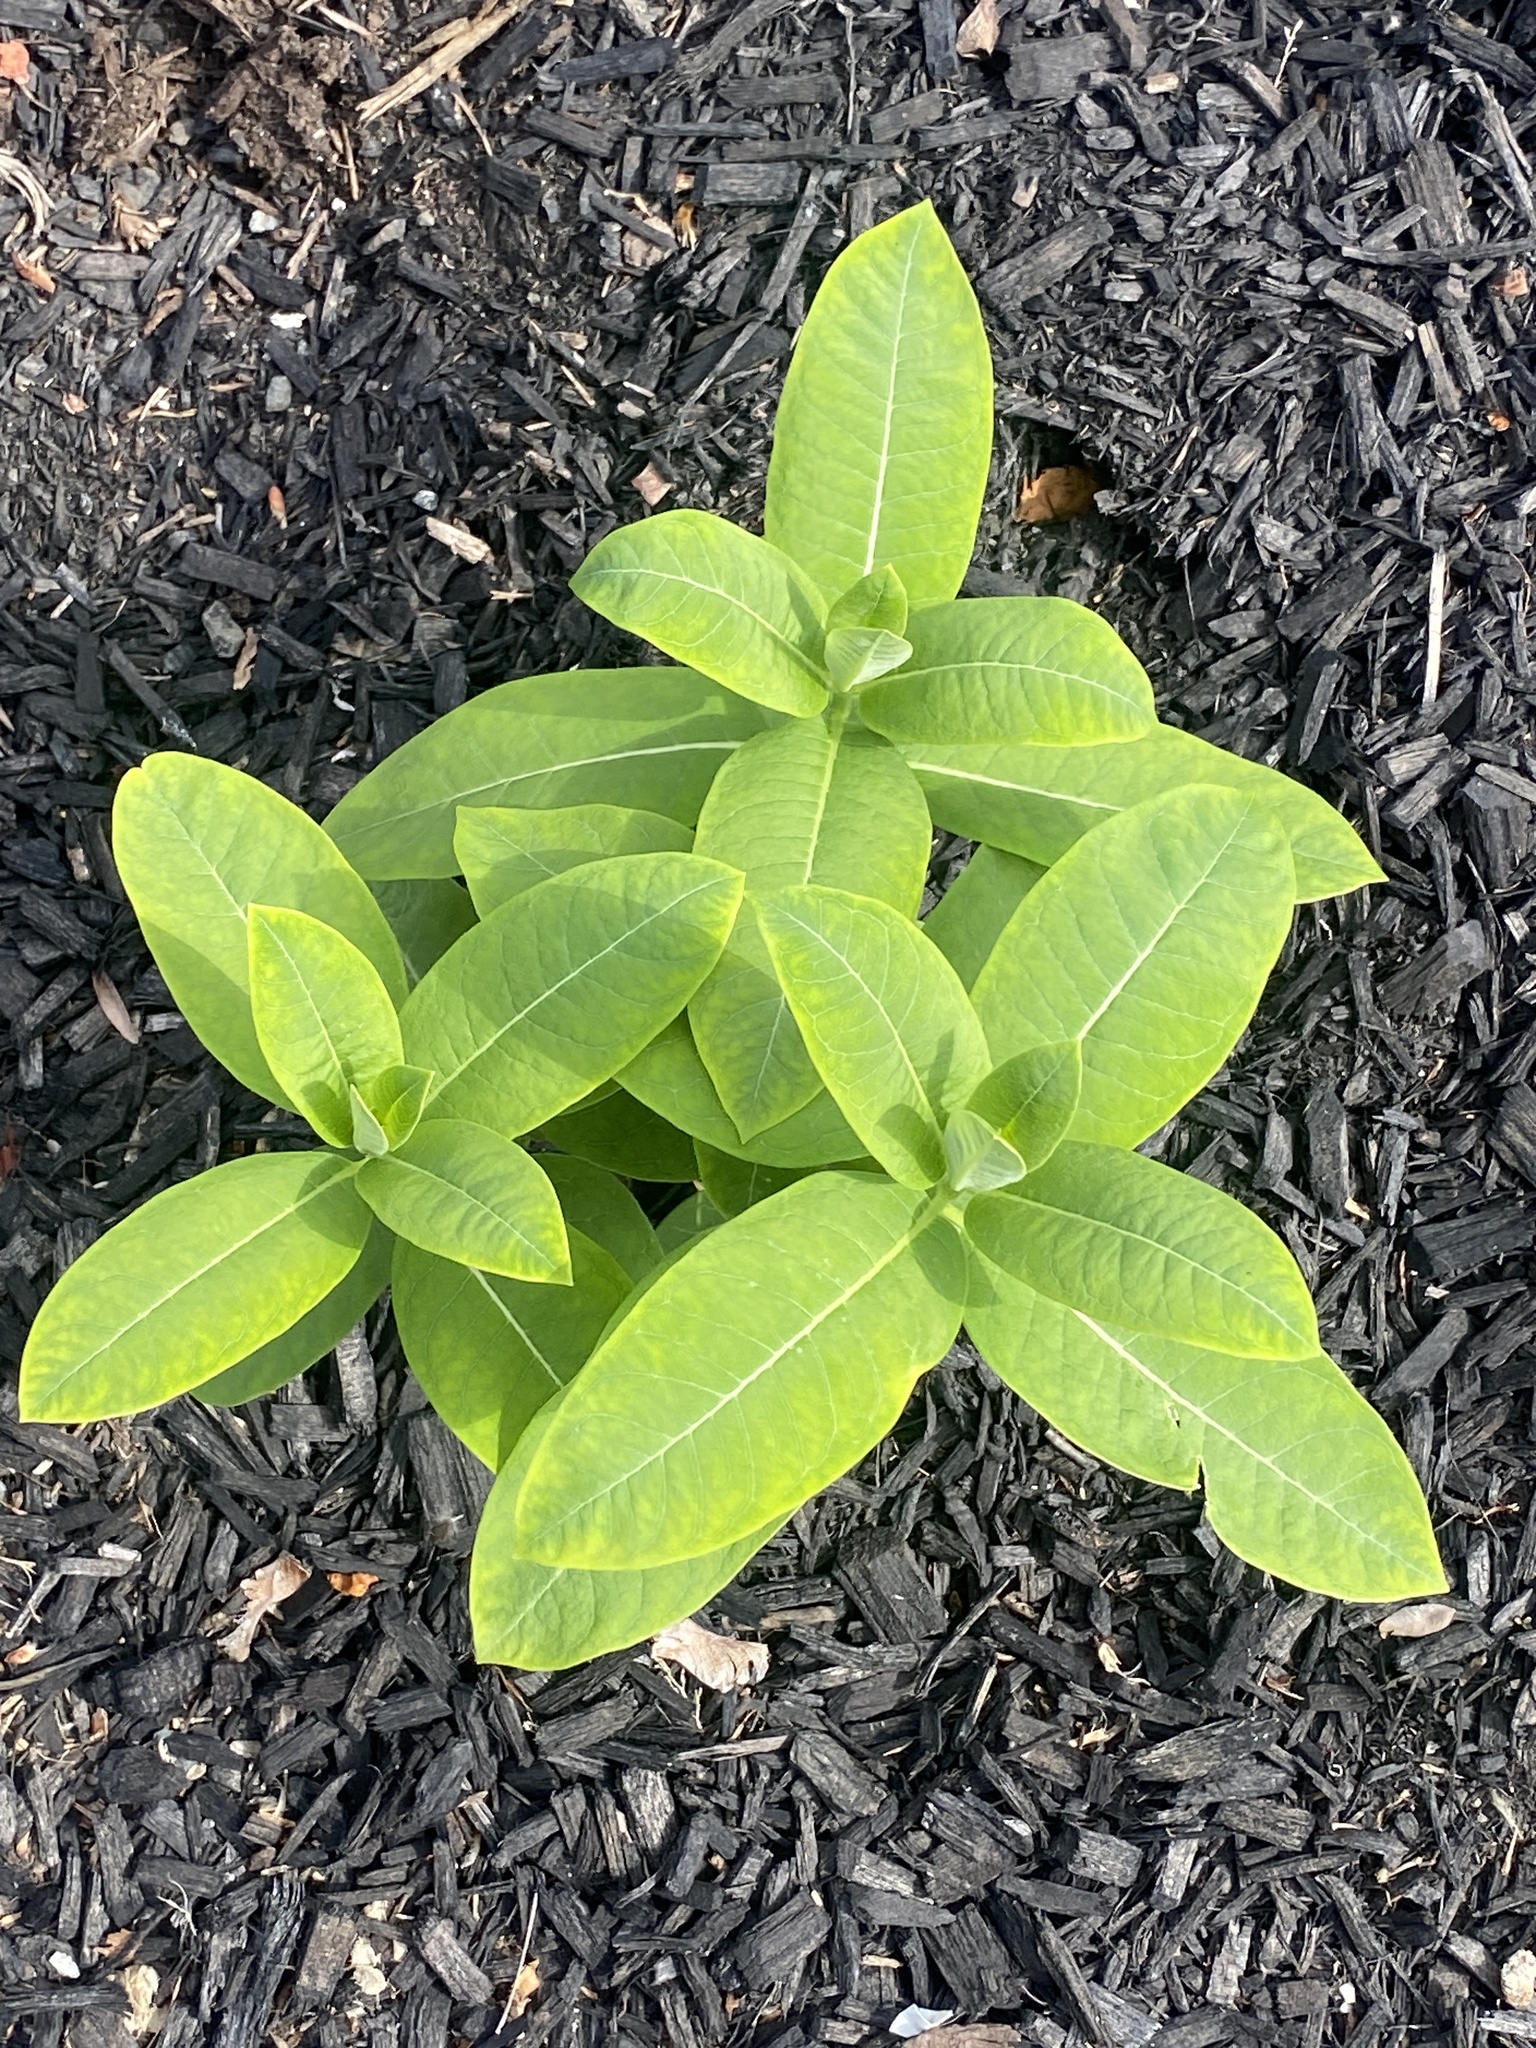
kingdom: Plantae
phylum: Tracheophyta
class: Magnoliopsida
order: Gentianales
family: Apocynaceae
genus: Asclepias
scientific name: Asclepias syriaca
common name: Common milkweed
